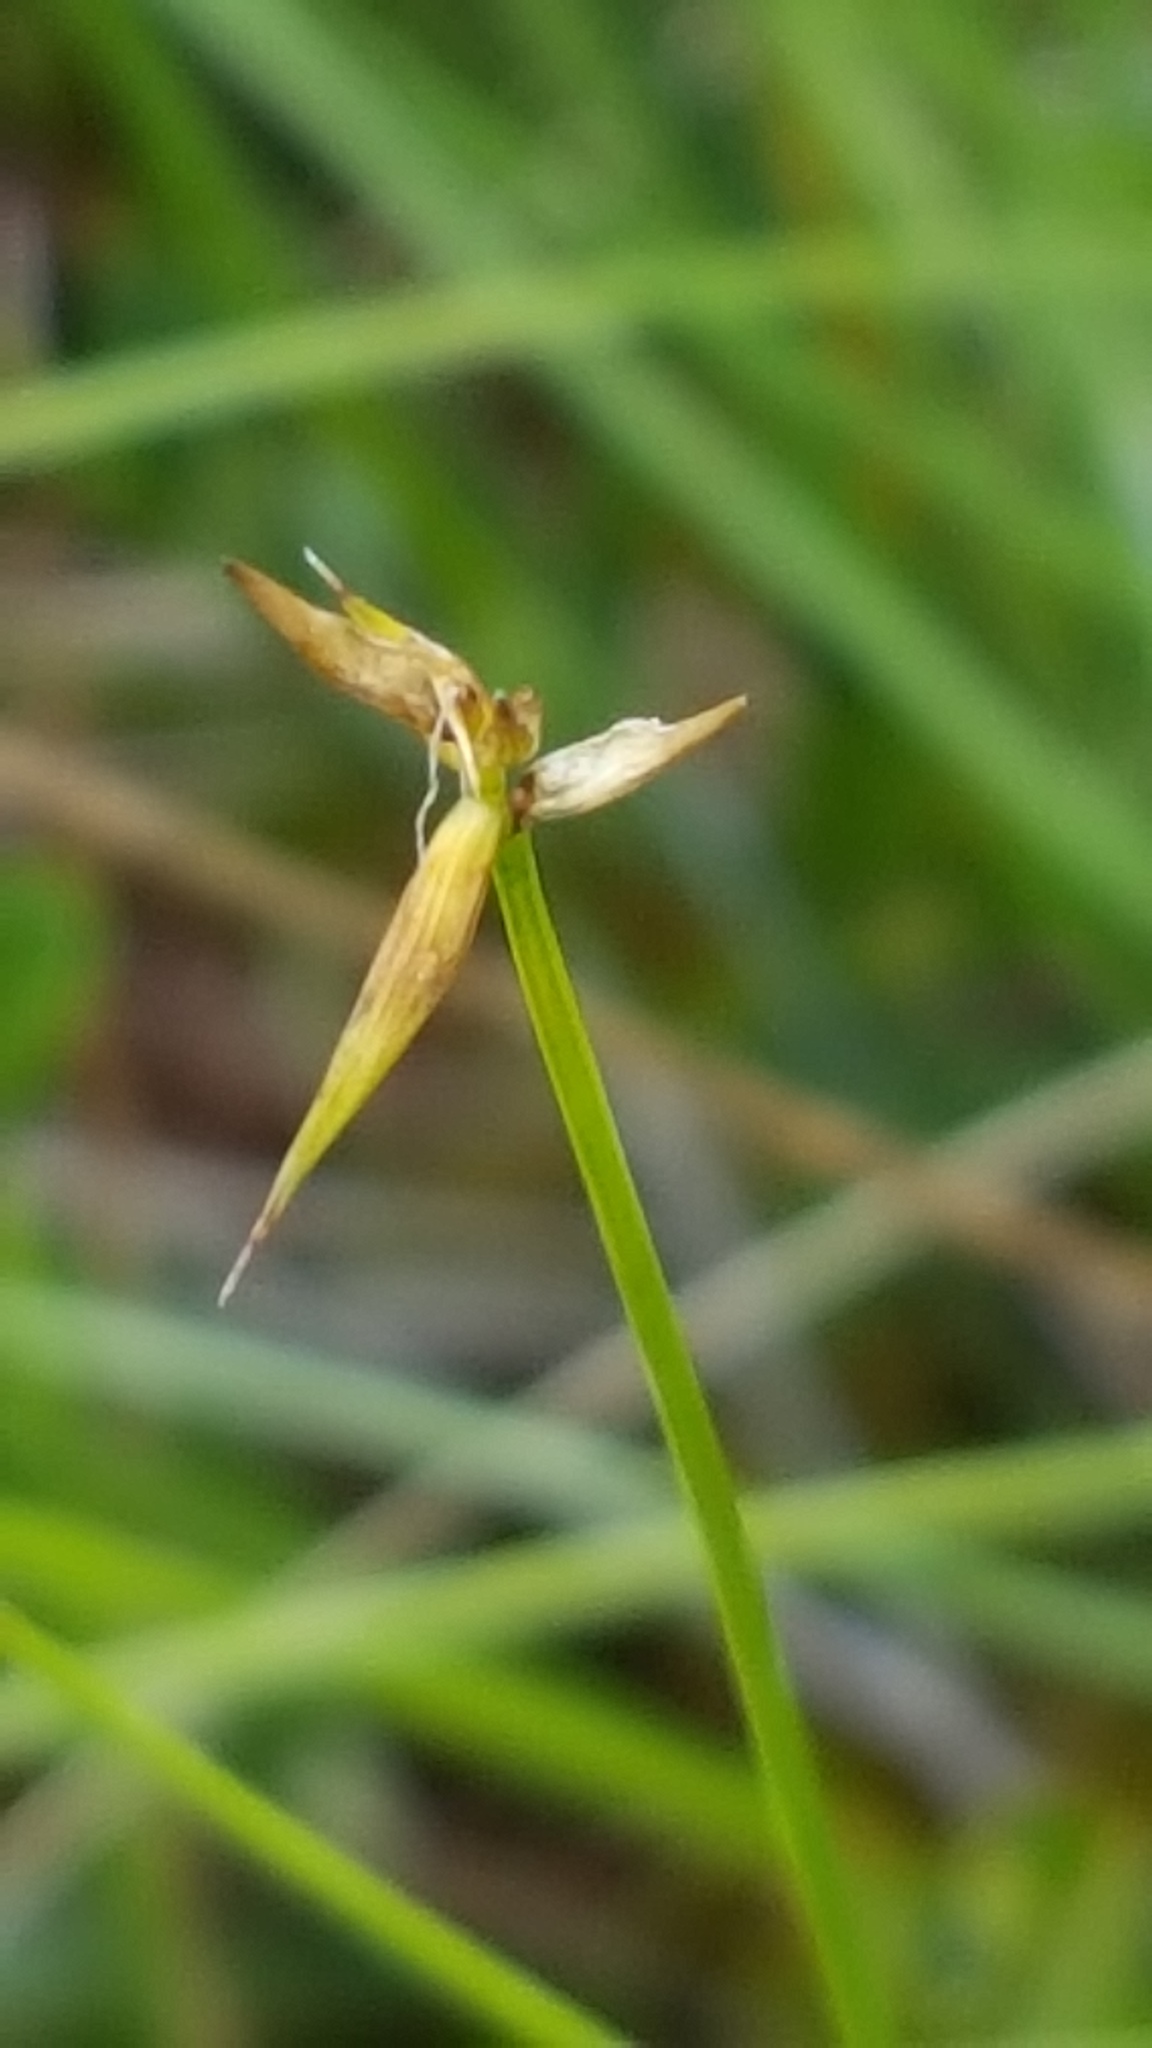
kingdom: Plantae
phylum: Tracheophyta
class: Liliopsida
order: Poales
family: Cyperaceae
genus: Carex
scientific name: Carex pauciflora
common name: Few-flowered sedge
